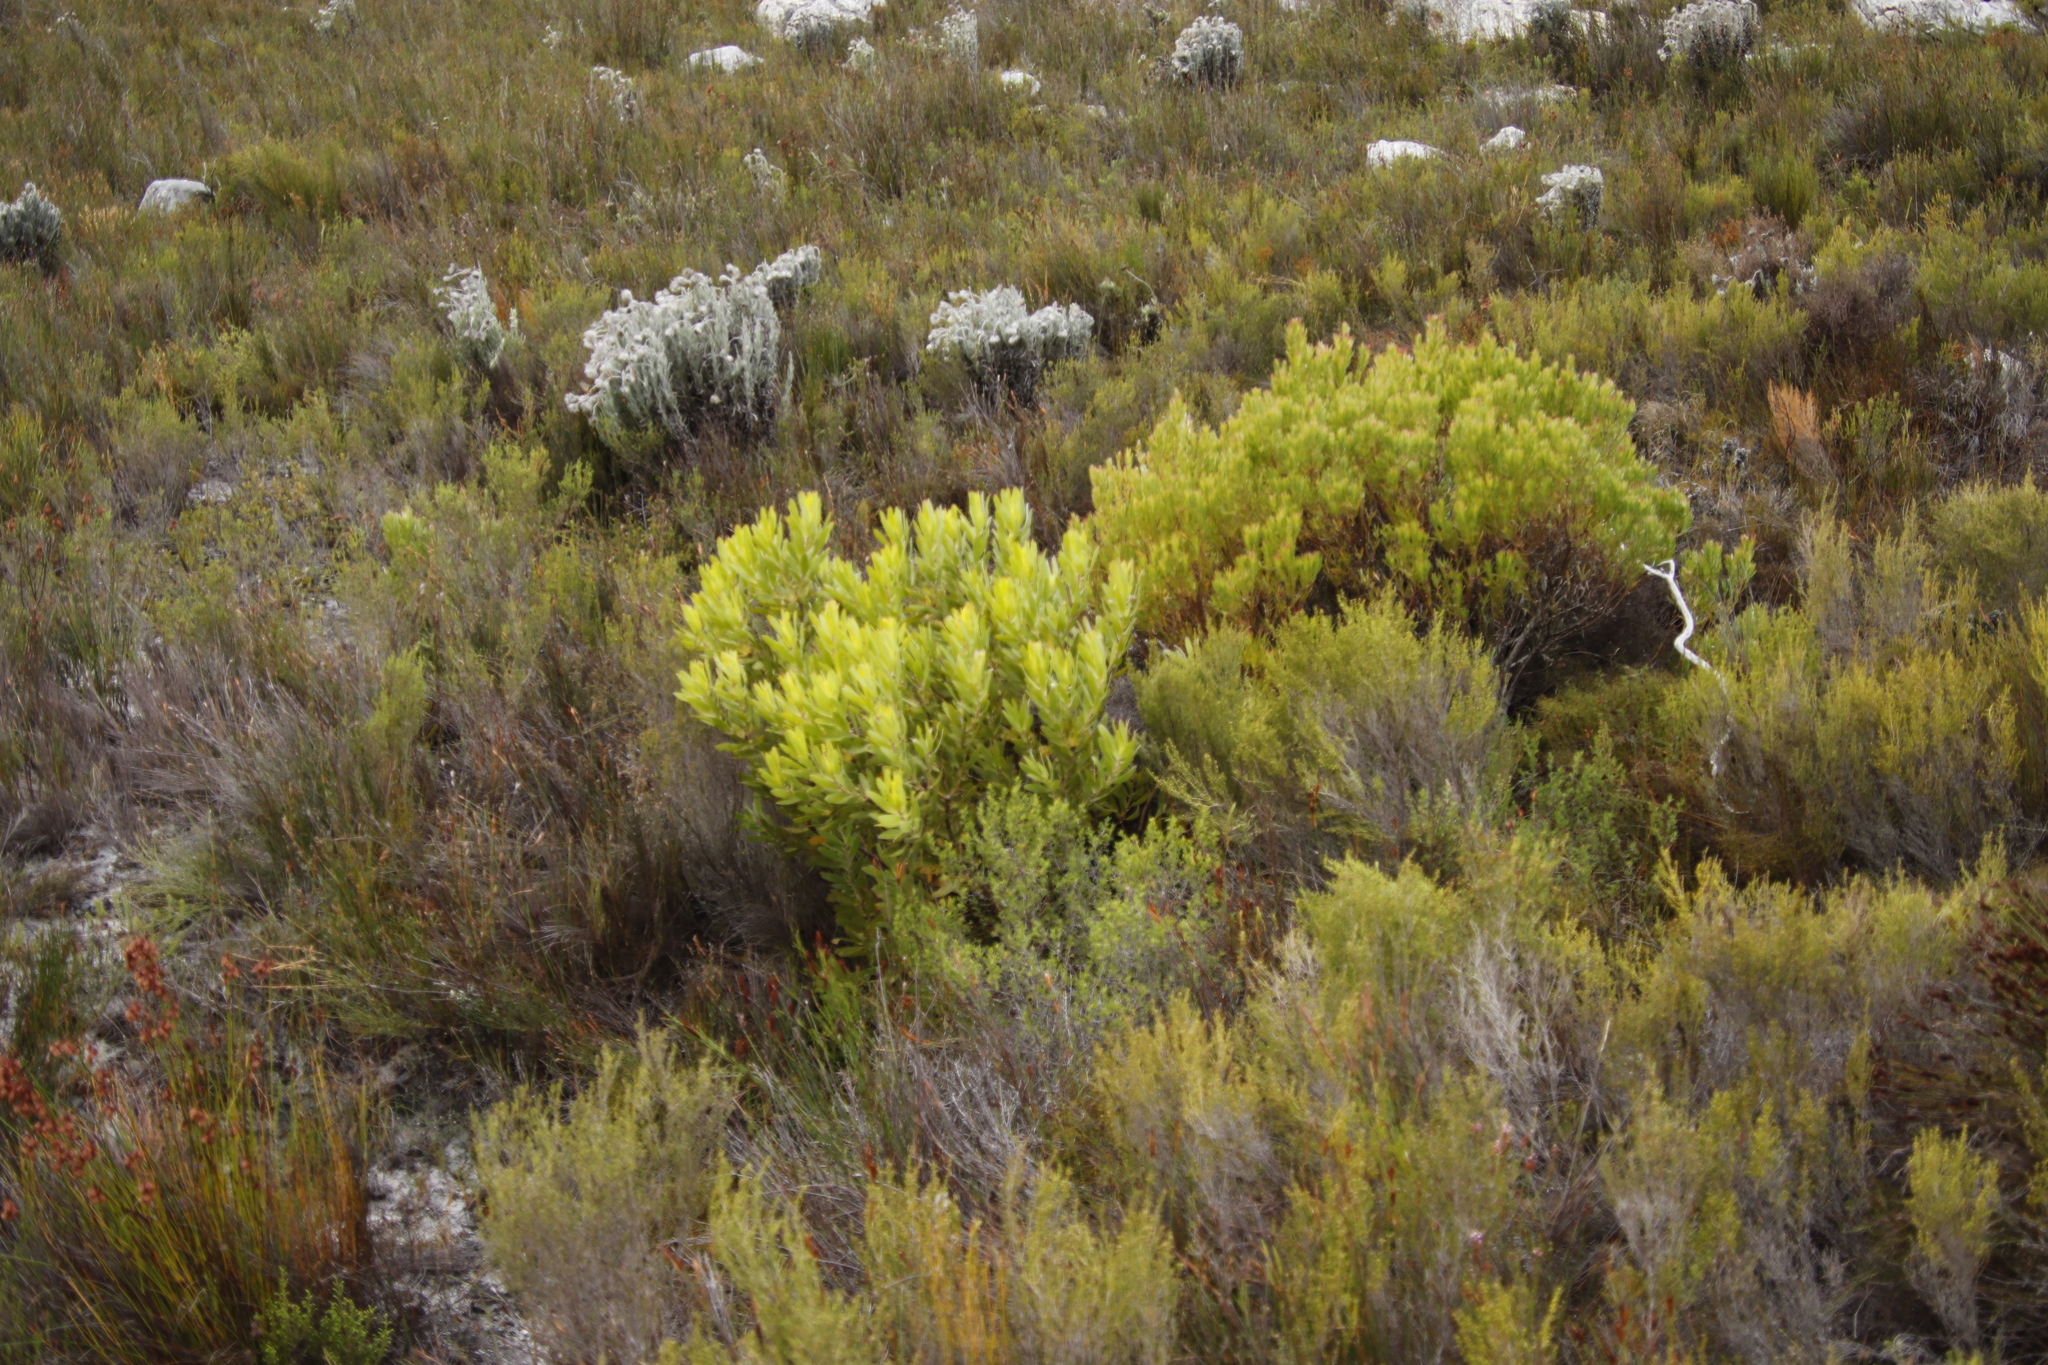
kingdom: Plantae
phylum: Tracheophyta
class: Magnoliopsida
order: Proteales
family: Proteaceae
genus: Leucadendron
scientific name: Leucadendron xanthoconus
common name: Sickle-leaf conebush
